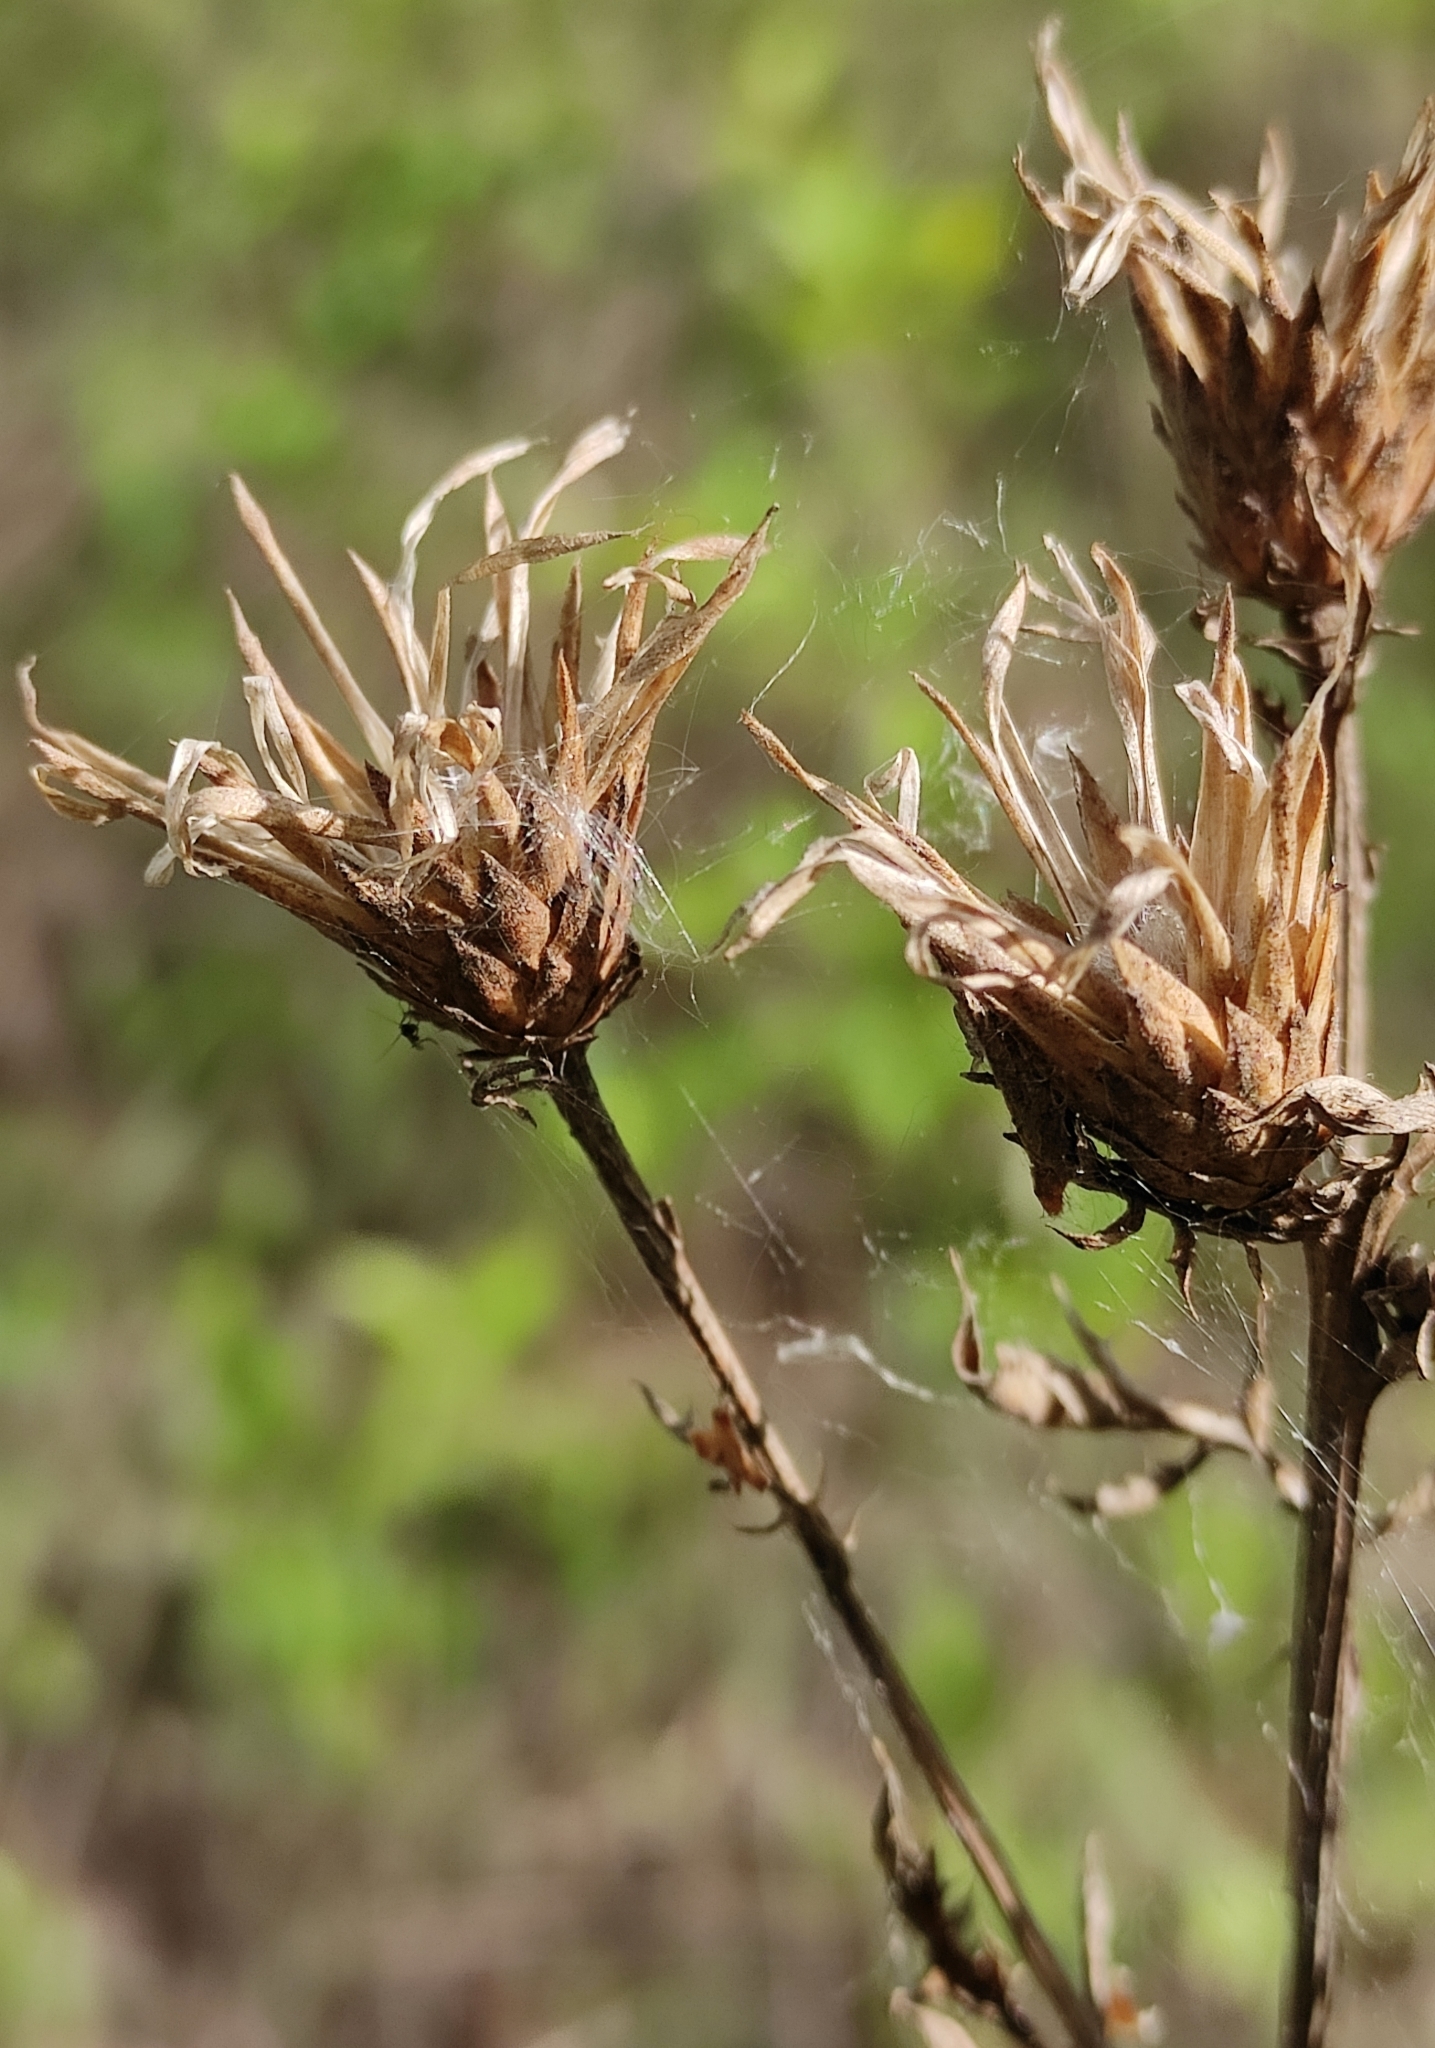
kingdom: Plantae
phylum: Tracheophyta
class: Magnoliopsida
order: Asterales
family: Asteraceae
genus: Serratula
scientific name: Serratula coronata
